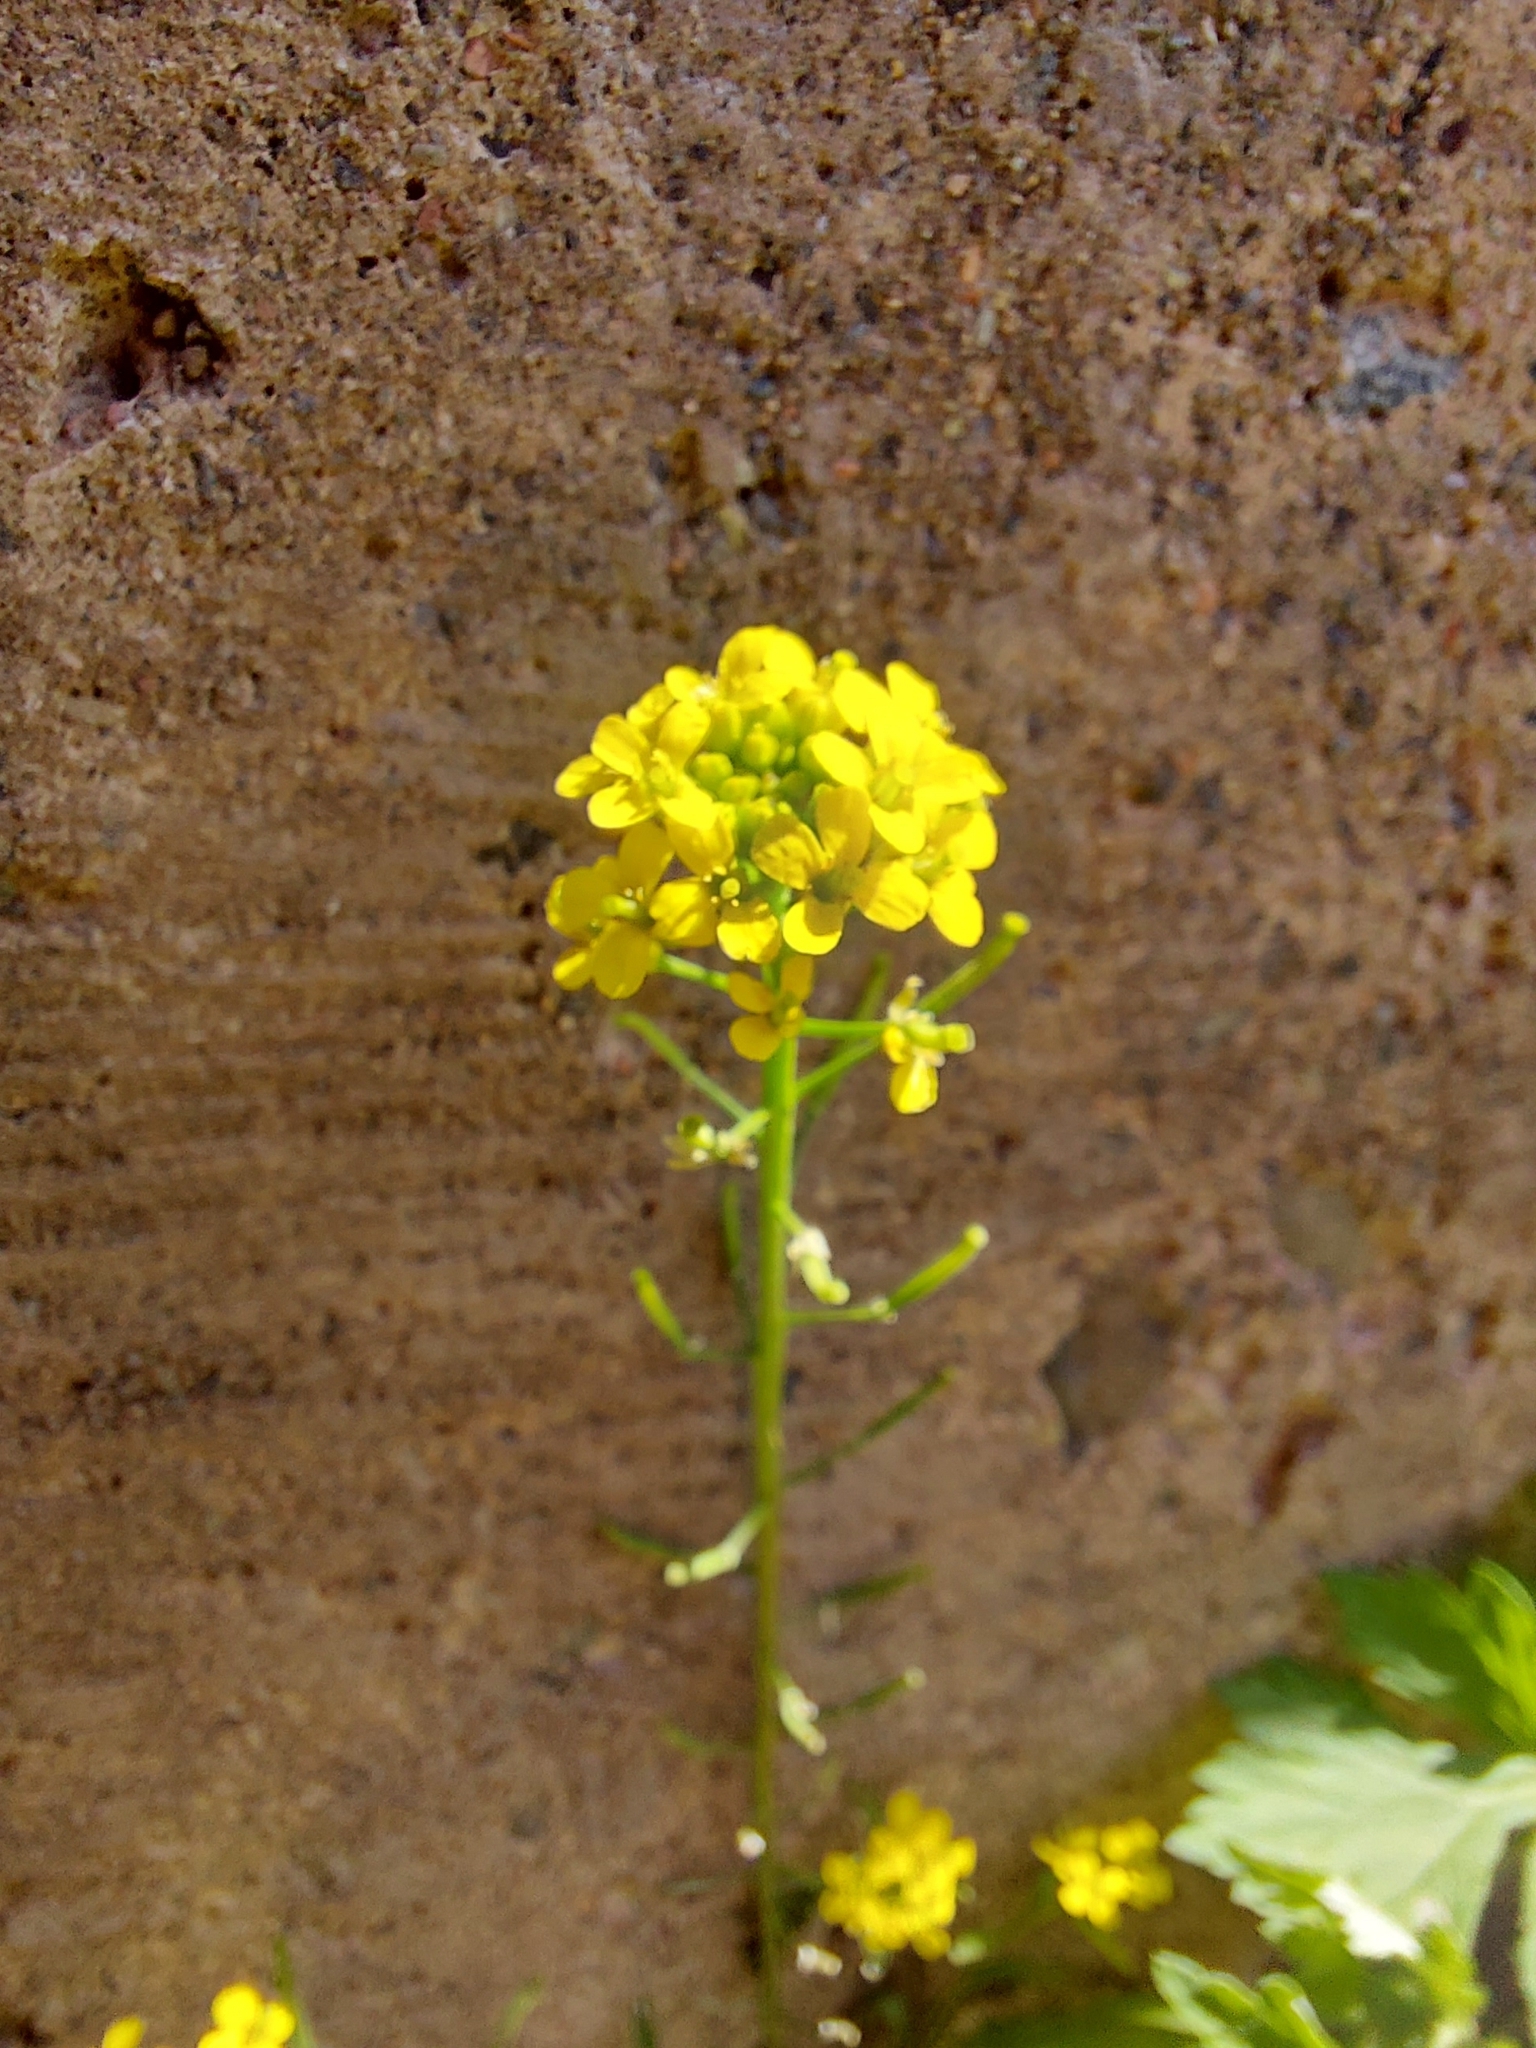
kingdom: Plantae
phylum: Tracheophyta
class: Magnoliopsida
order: Brassicales
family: Brassicaceae
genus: Erysimum
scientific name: Erysimum cheiranthoides
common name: Treacle mustard
